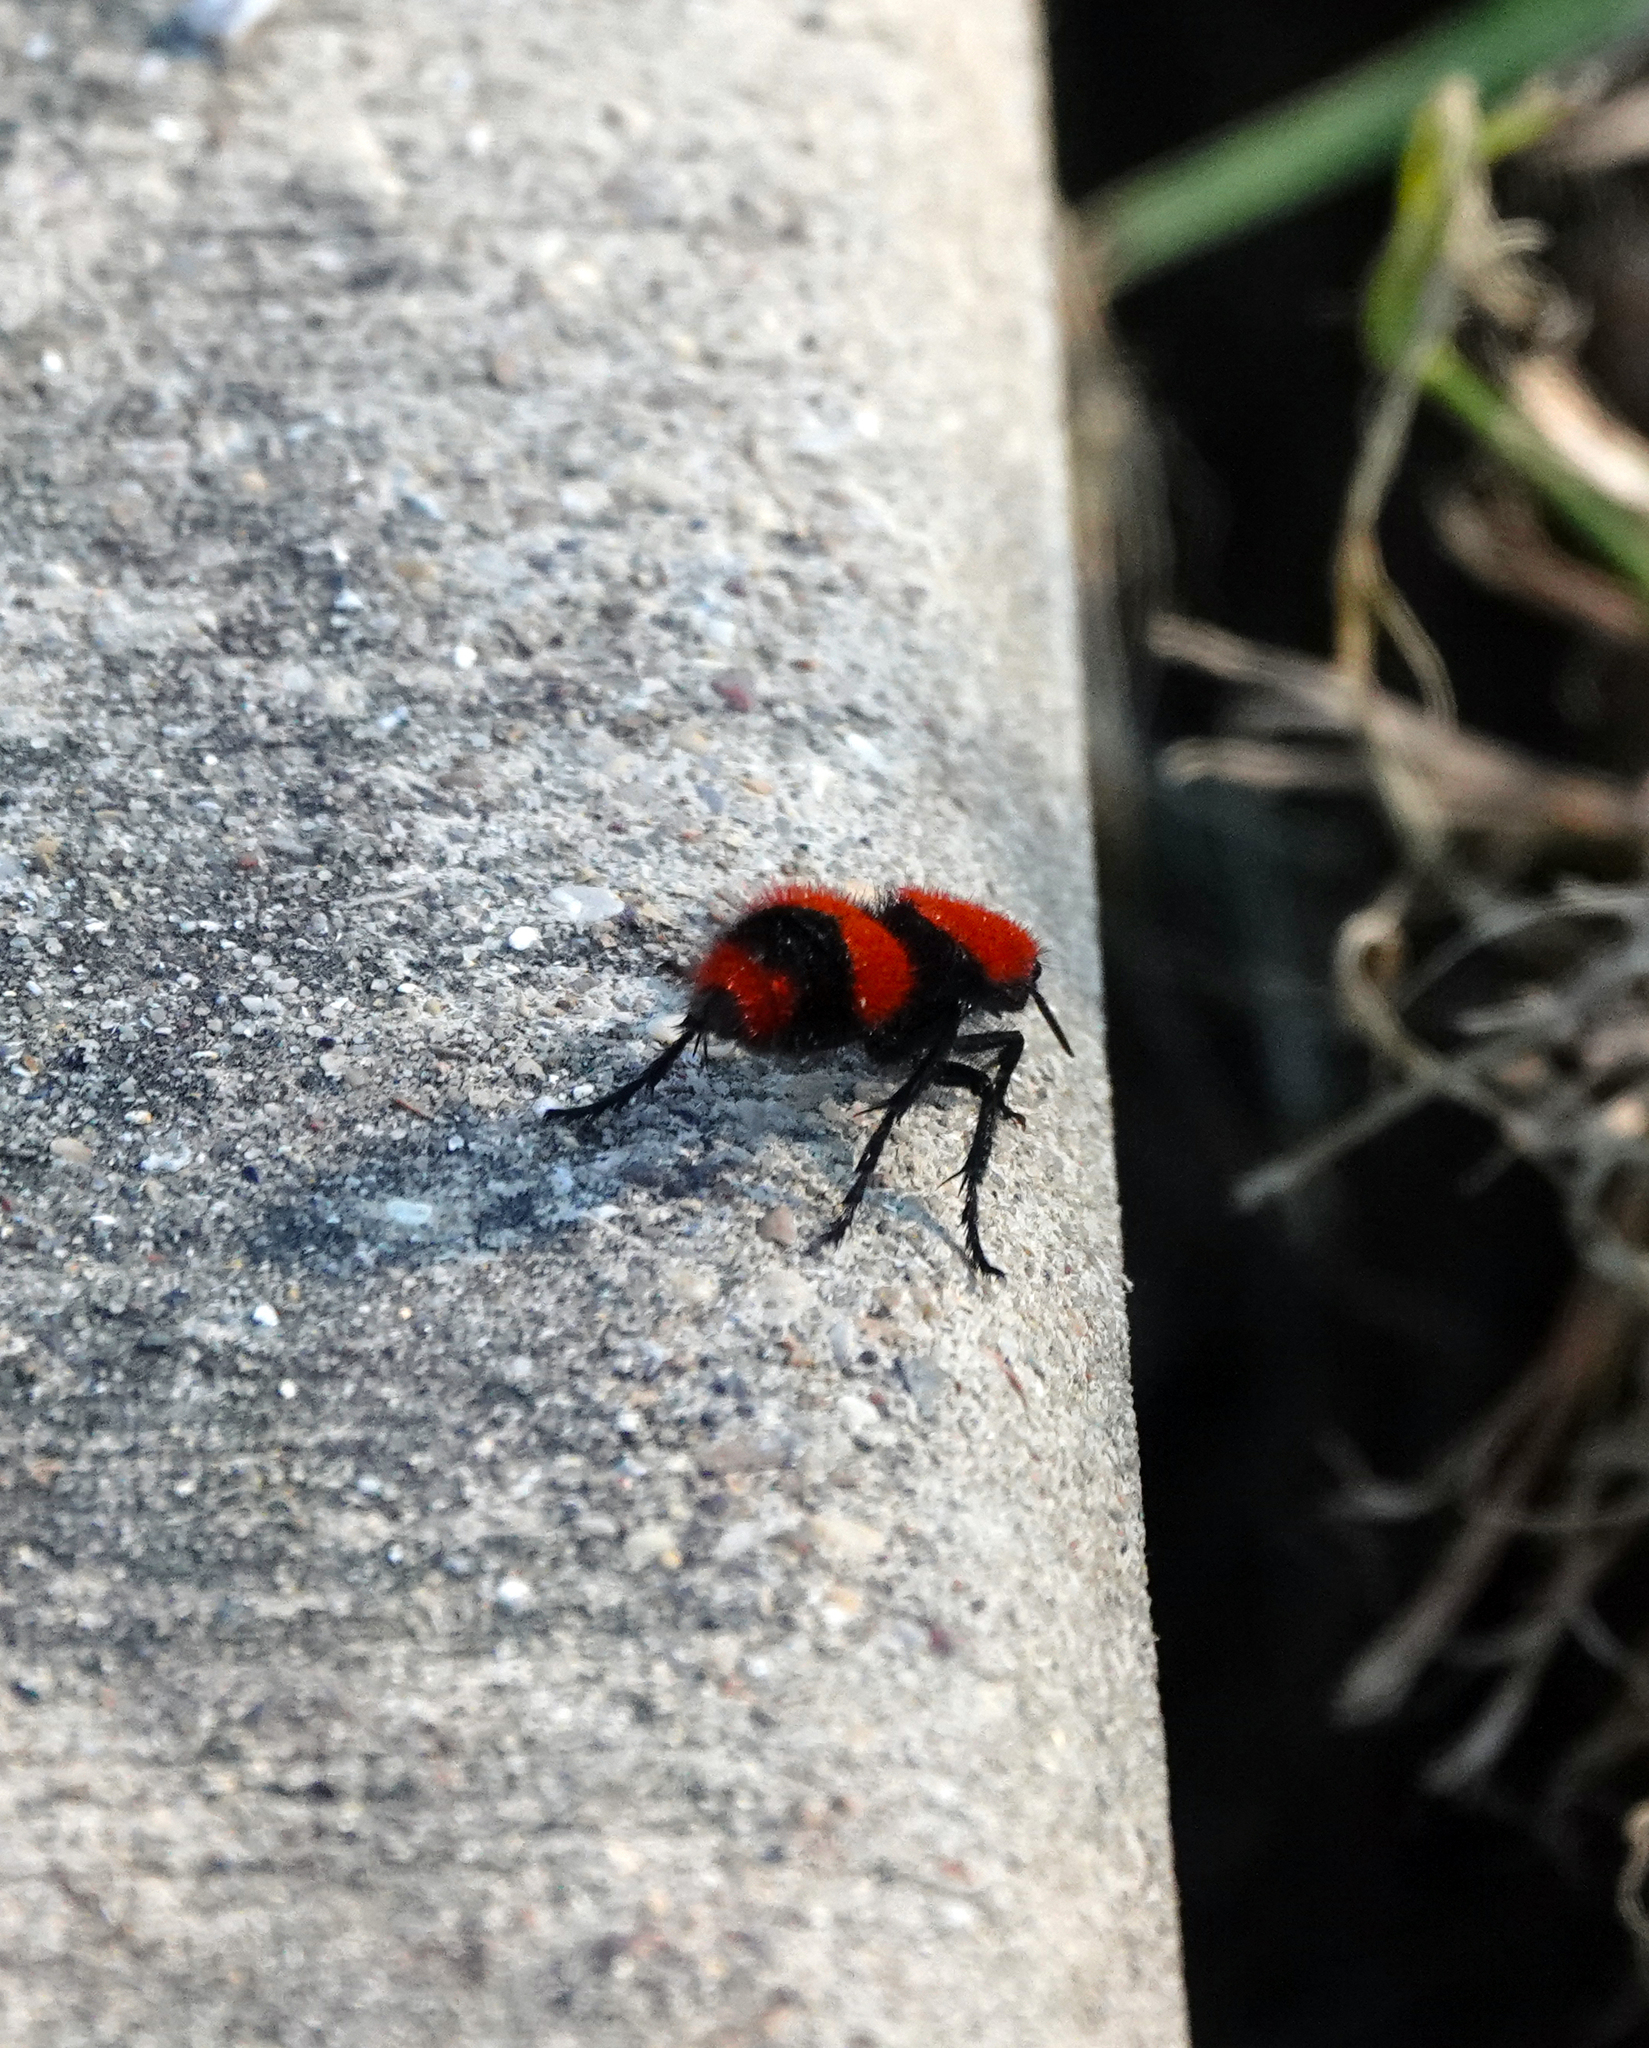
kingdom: Animalia
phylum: Arthropoda
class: Insecta
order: Hymenoptera
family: Mutillidae
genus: Dasymutilla
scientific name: Dasymutilla occidentalis
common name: Common eastern velvet ant
